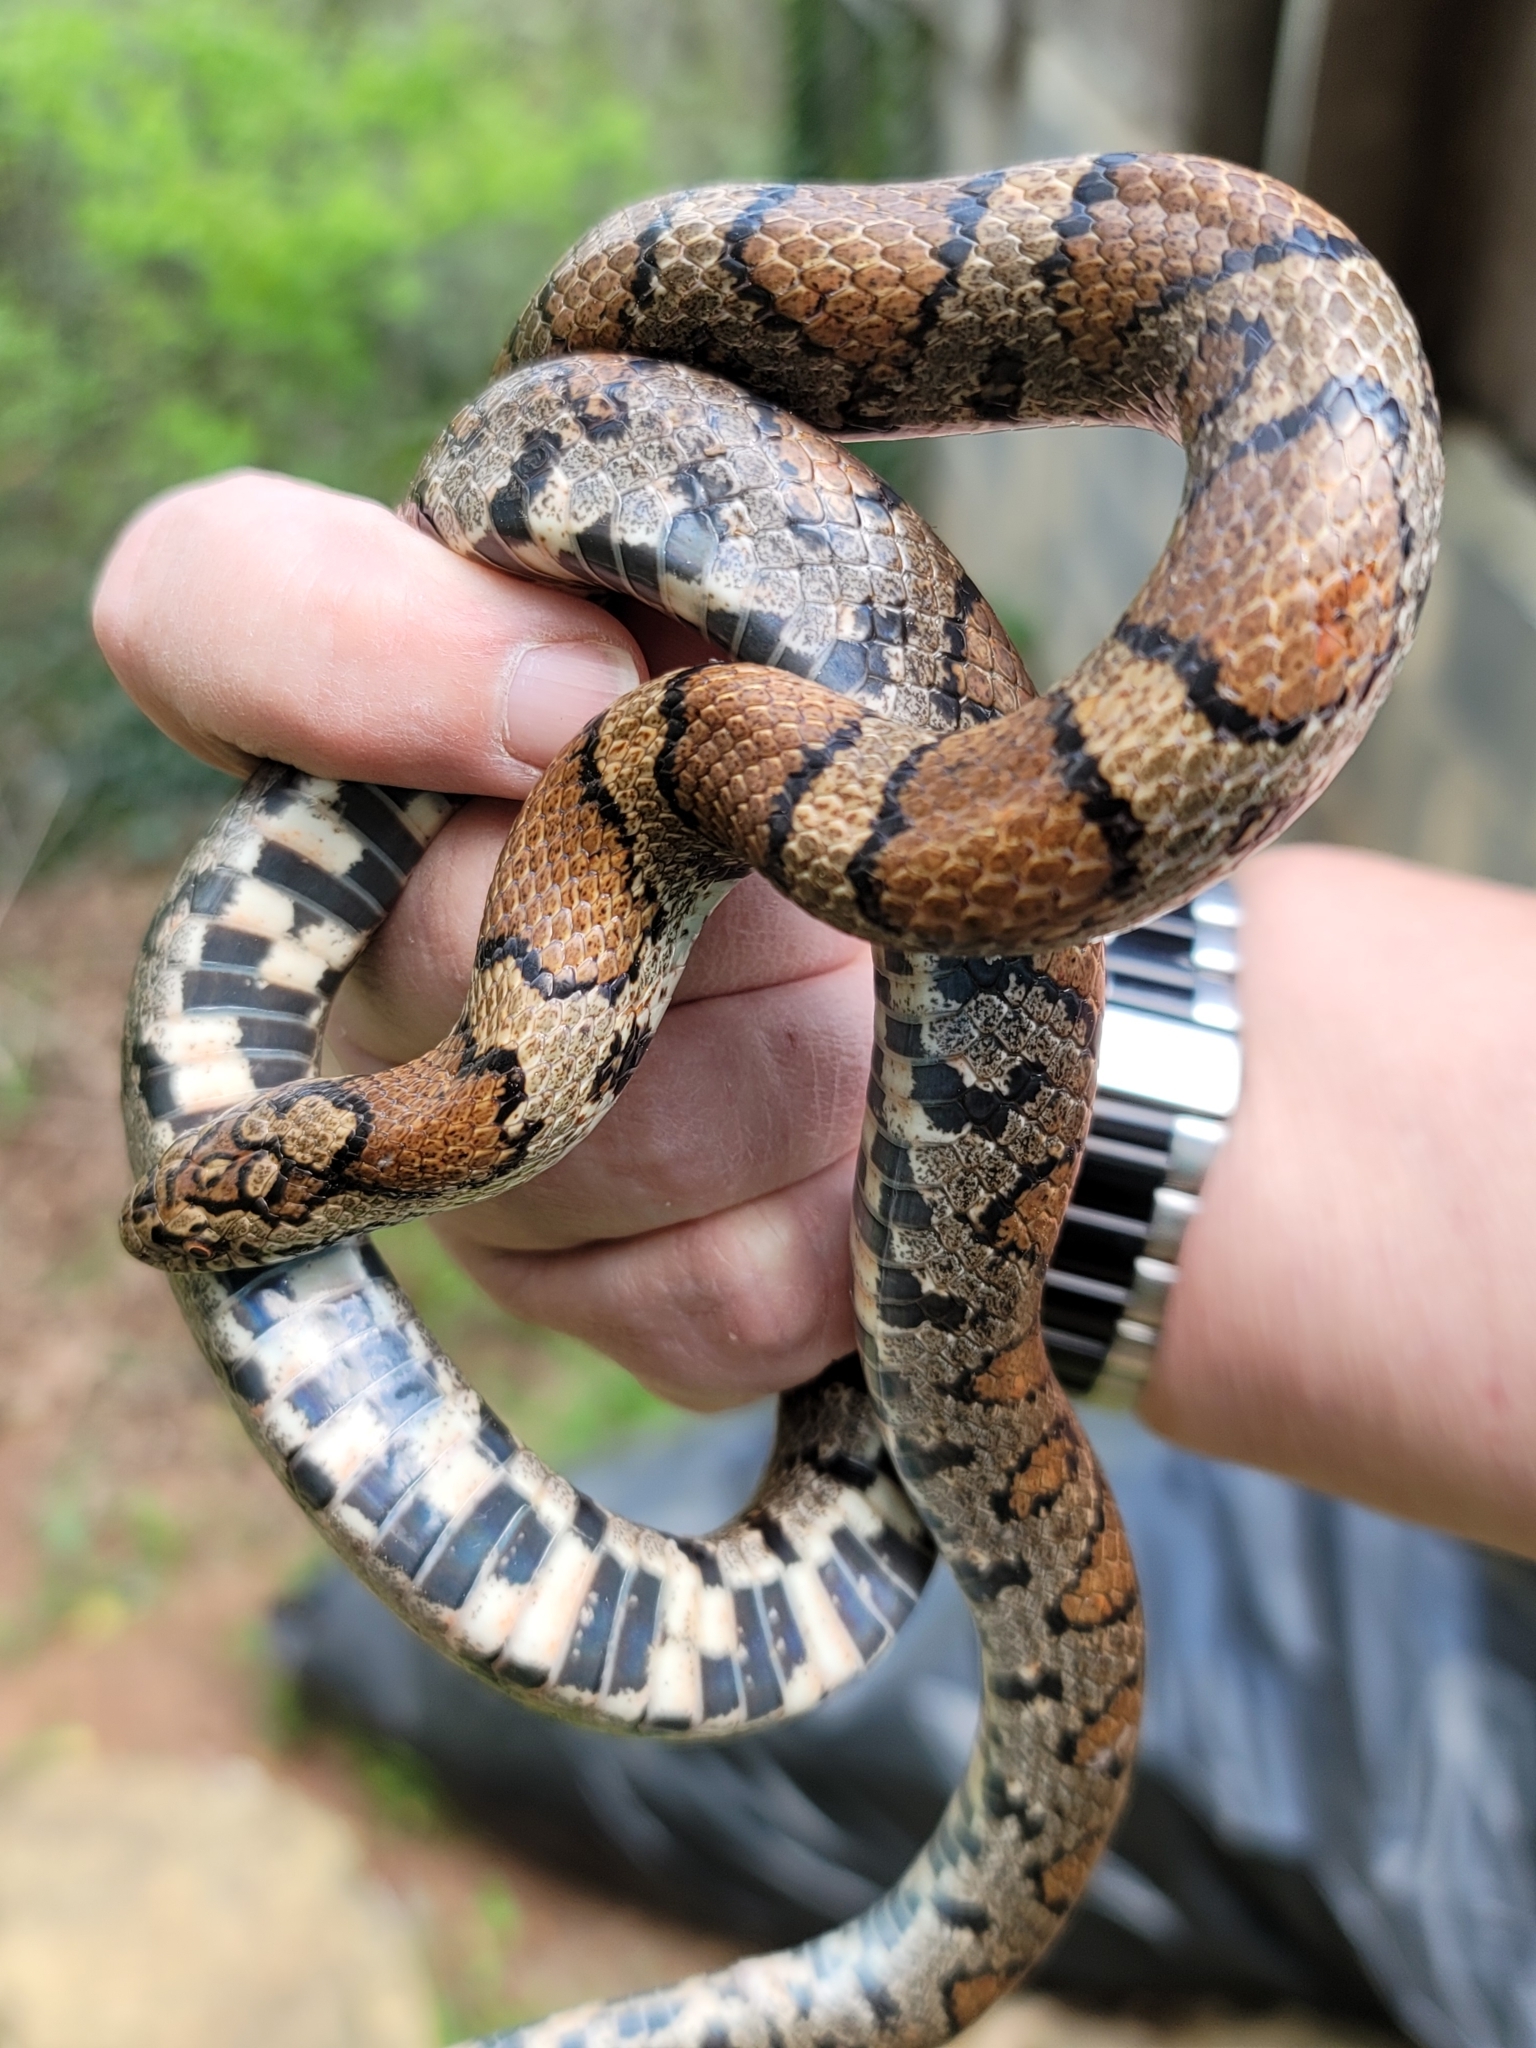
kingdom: Animalia
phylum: Chordata
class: Squamata
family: Colubridae
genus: Lampropeltis
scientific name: Lampropeltis triangulum
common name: Eastern milksnake
